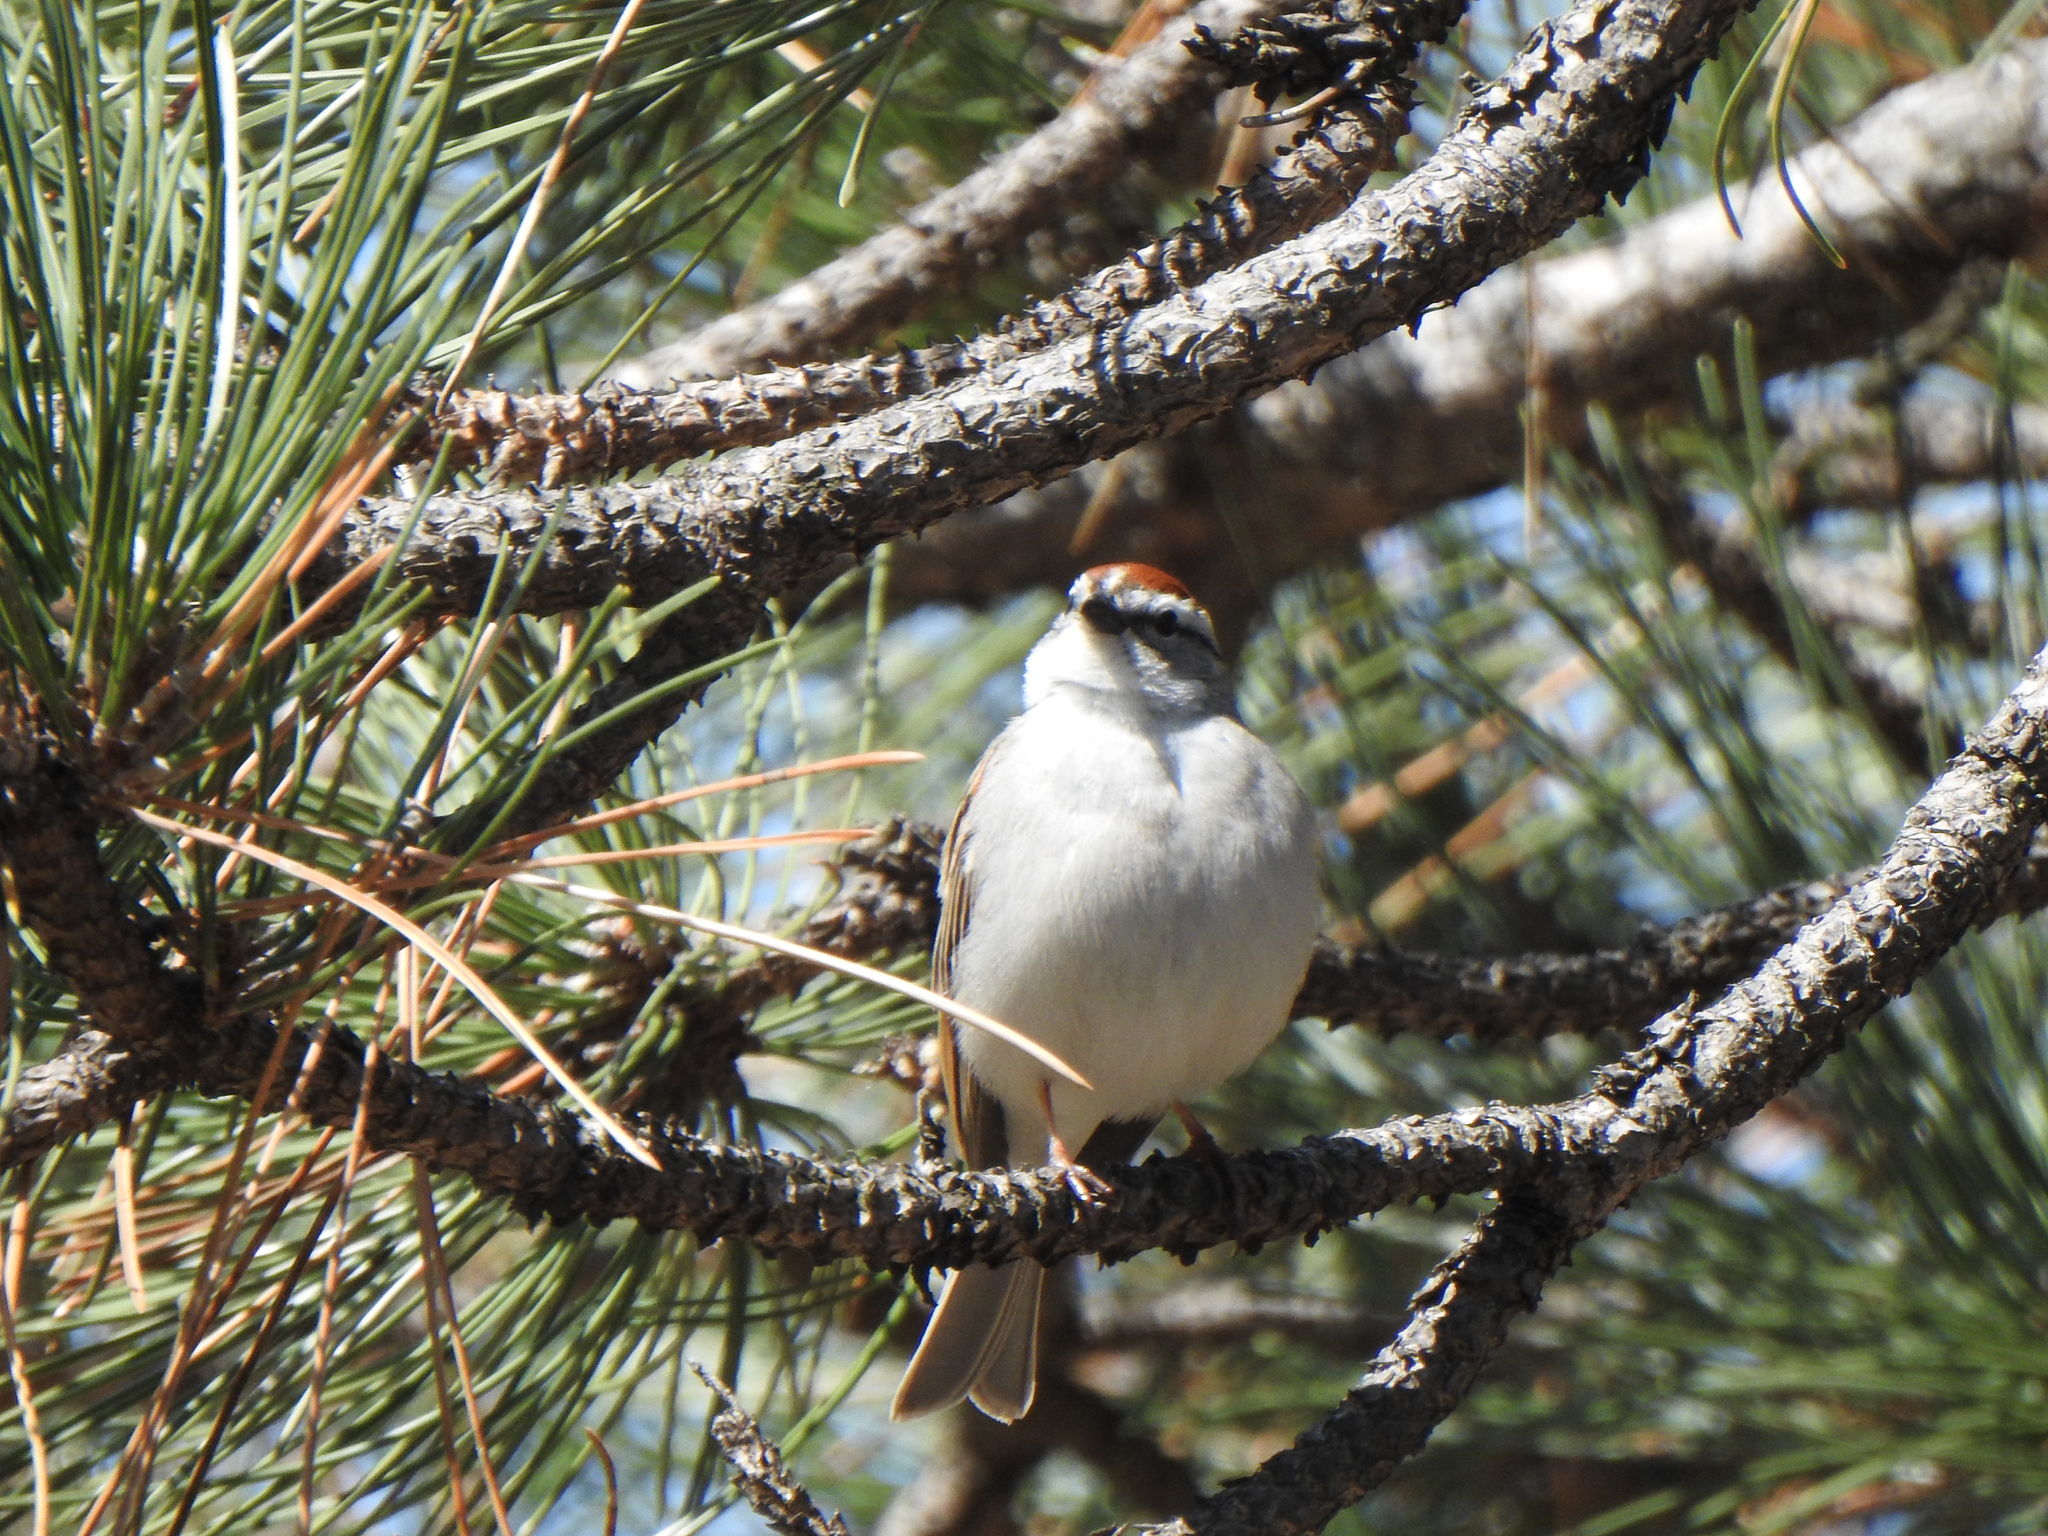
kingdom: Animalia
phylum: Chordata
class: Aves
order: Passeriformes
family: Passerellidae
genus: Spizella
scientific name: Spizella passerina
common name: Chipping sparrow
